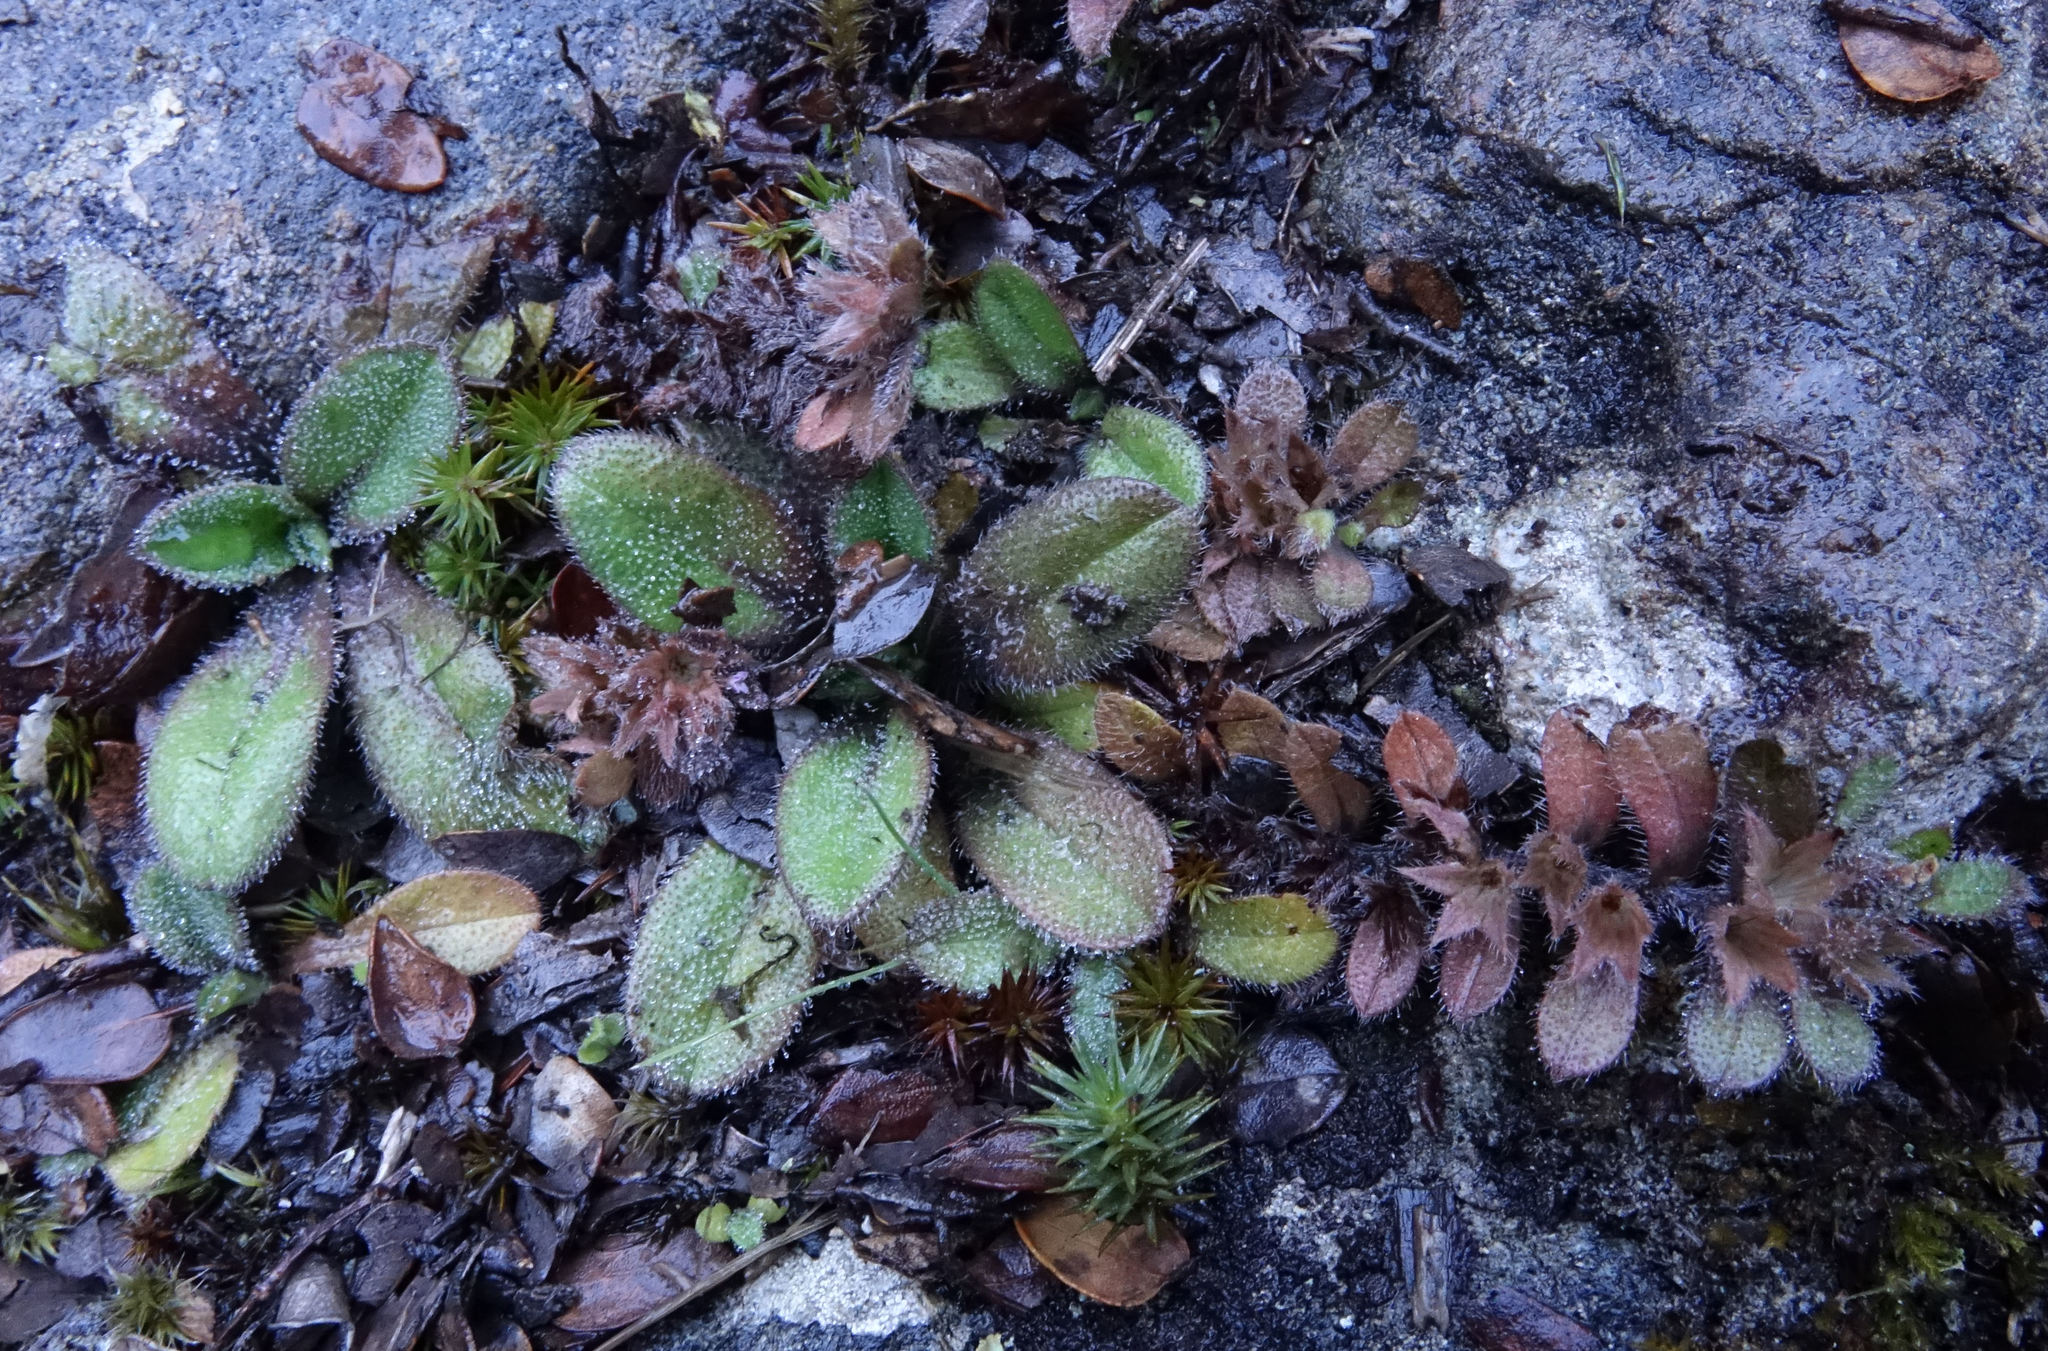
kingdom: Plantae
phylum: Tracheophyta
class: Magnoliopsida
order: Boraginales
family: Boraginaceae
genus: Myosotis
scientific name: Myosotis antarctica
